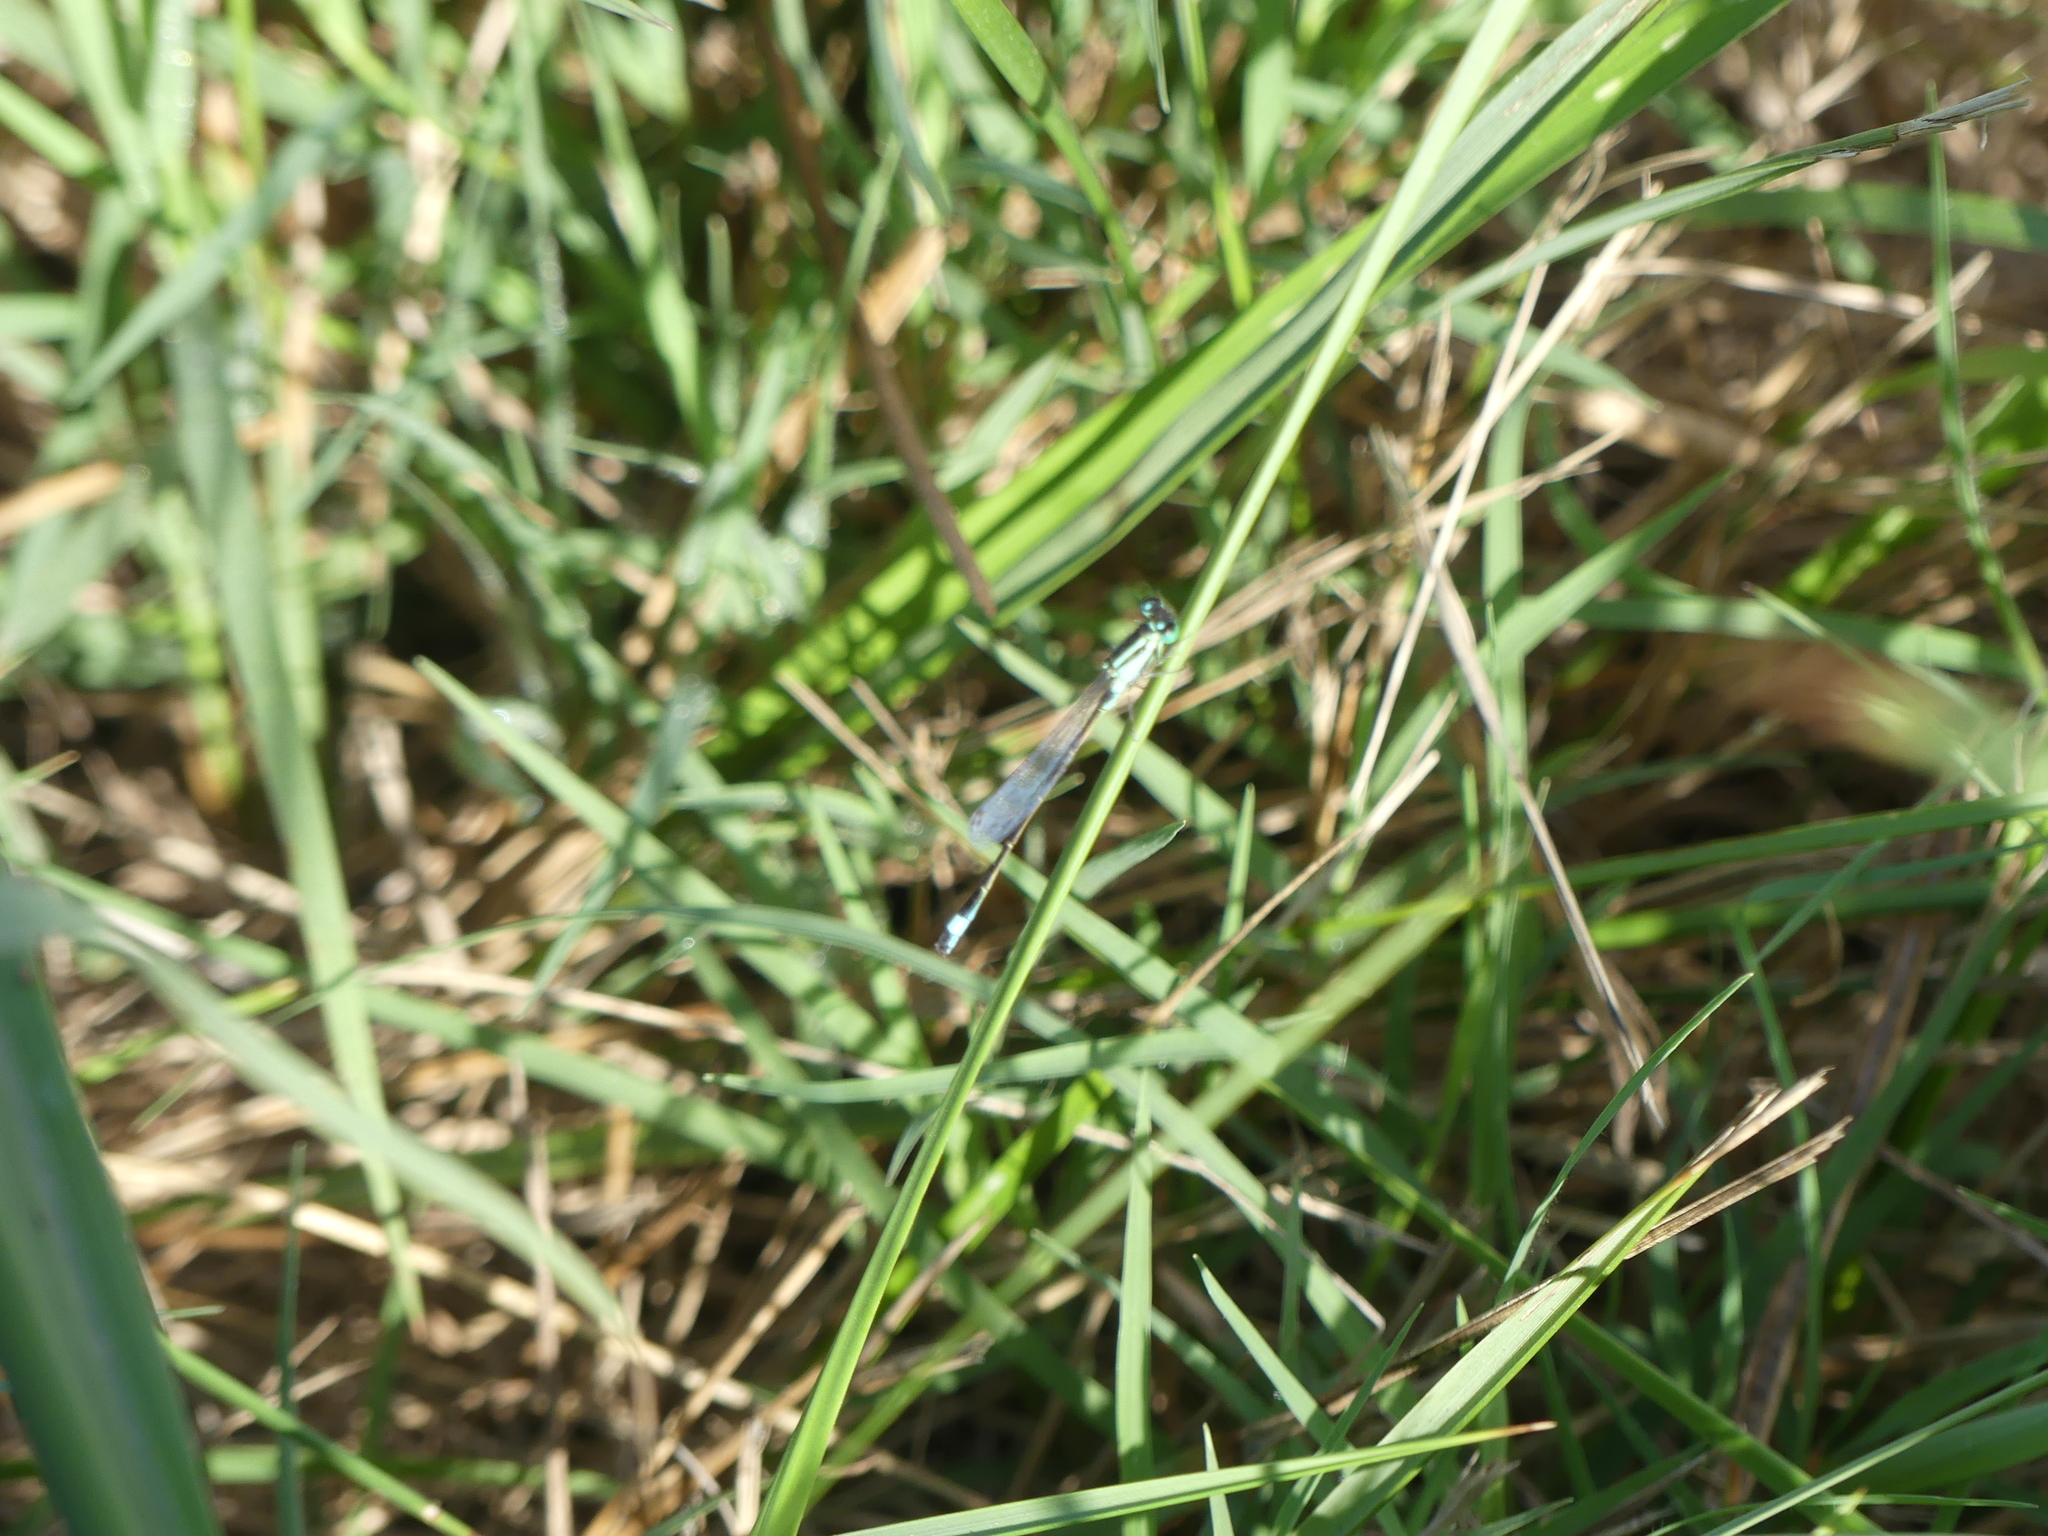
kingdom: Animalia
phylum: Arthropoda
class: Insecta
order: Odonata
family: Coenagrionidae
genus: Ischnura
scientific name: Ischnura elegans
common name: Blue-tailed damselfly
